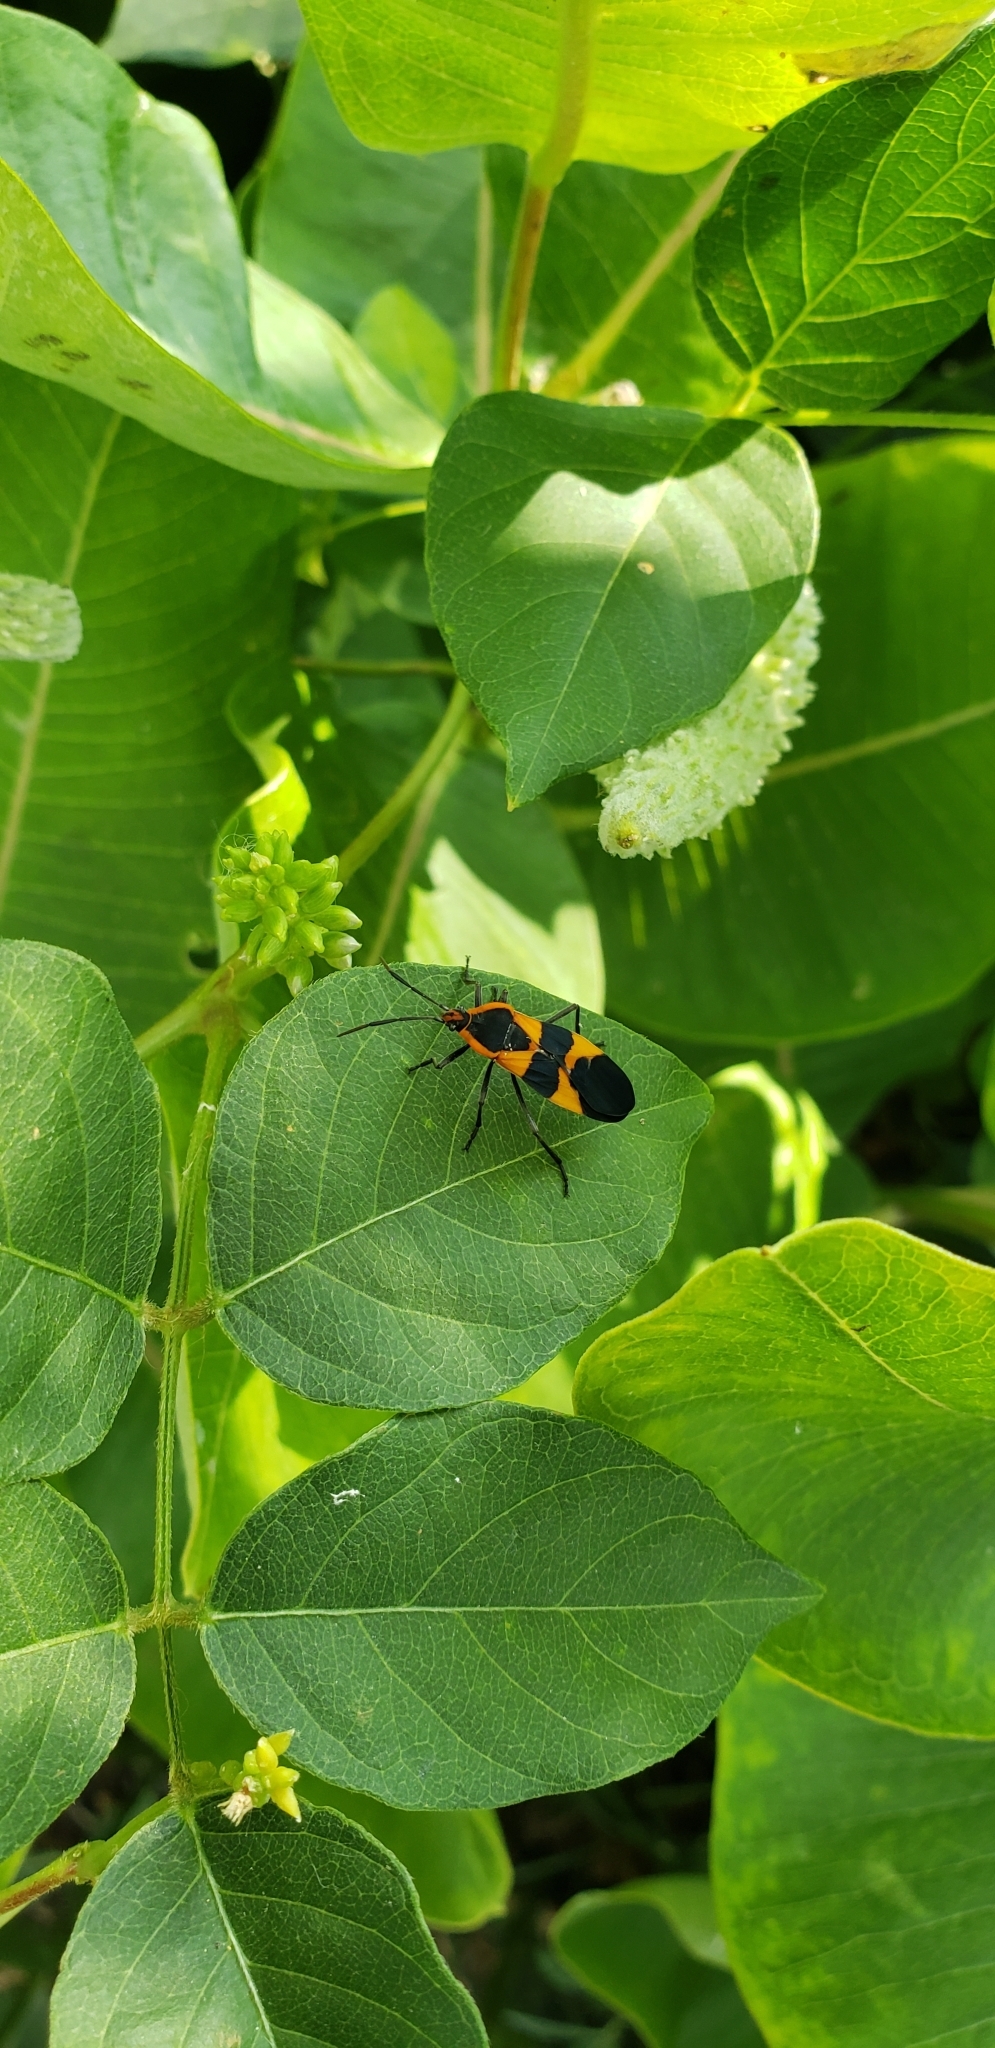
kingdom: Animalia
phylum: Arthropoda
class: Insecta
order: Hemiptera
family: Lygaeidae
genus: Oncopeltus
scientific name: Oncopeltus fasciatus
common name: Large milkweed bug
